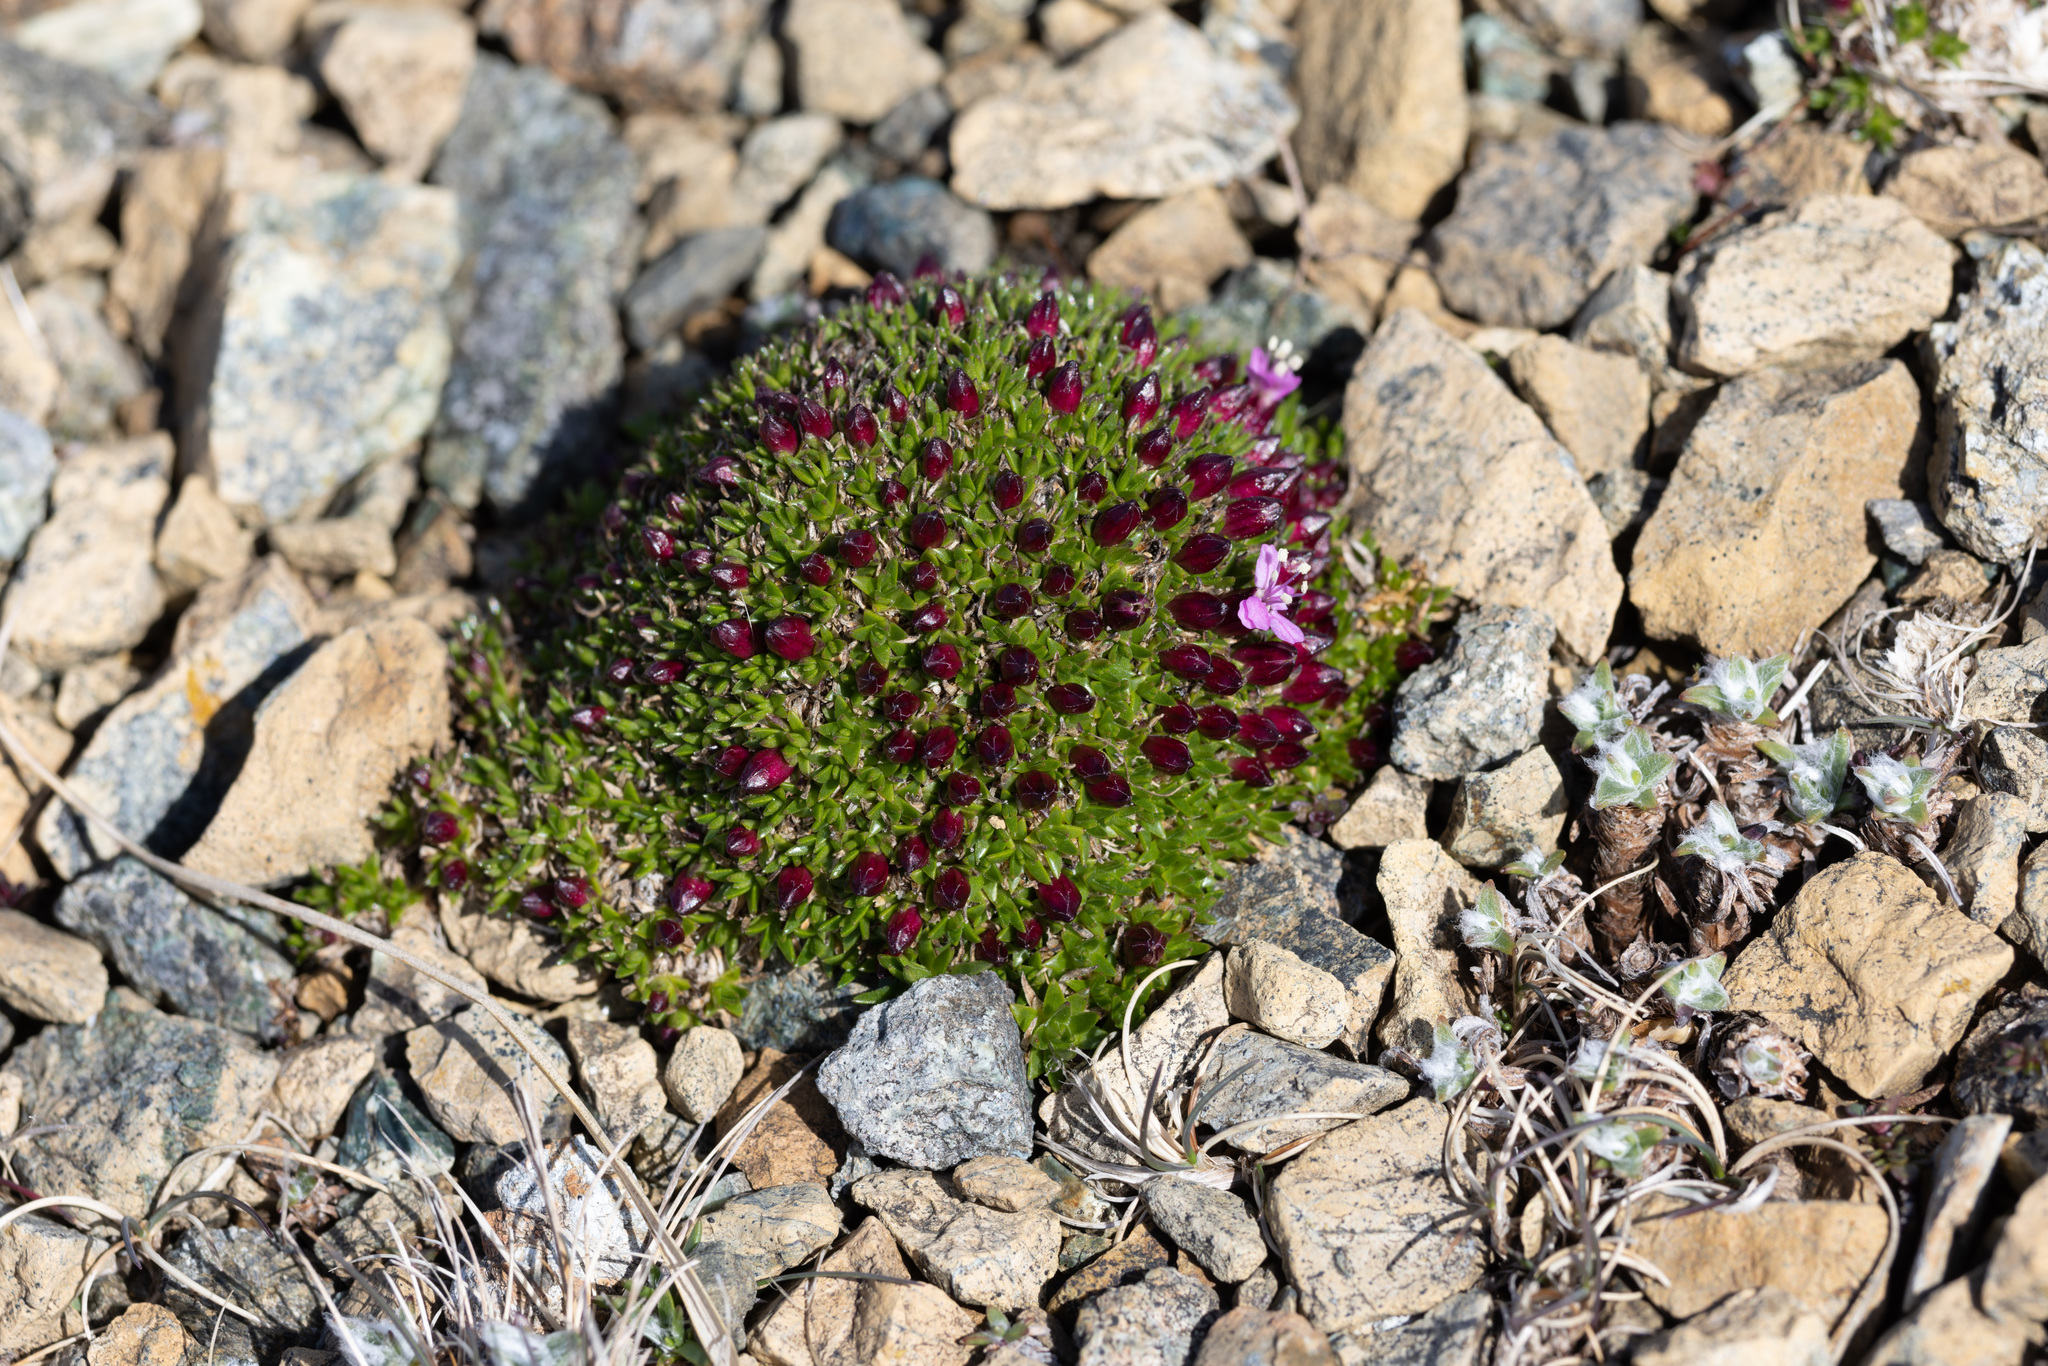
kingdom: Plantae
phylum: Tracheophyta
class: Magnoliopsida
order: Caryophyllales
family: Caryophyllaceae
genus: Silene
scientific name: Silene acaulis
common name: Moss campion
